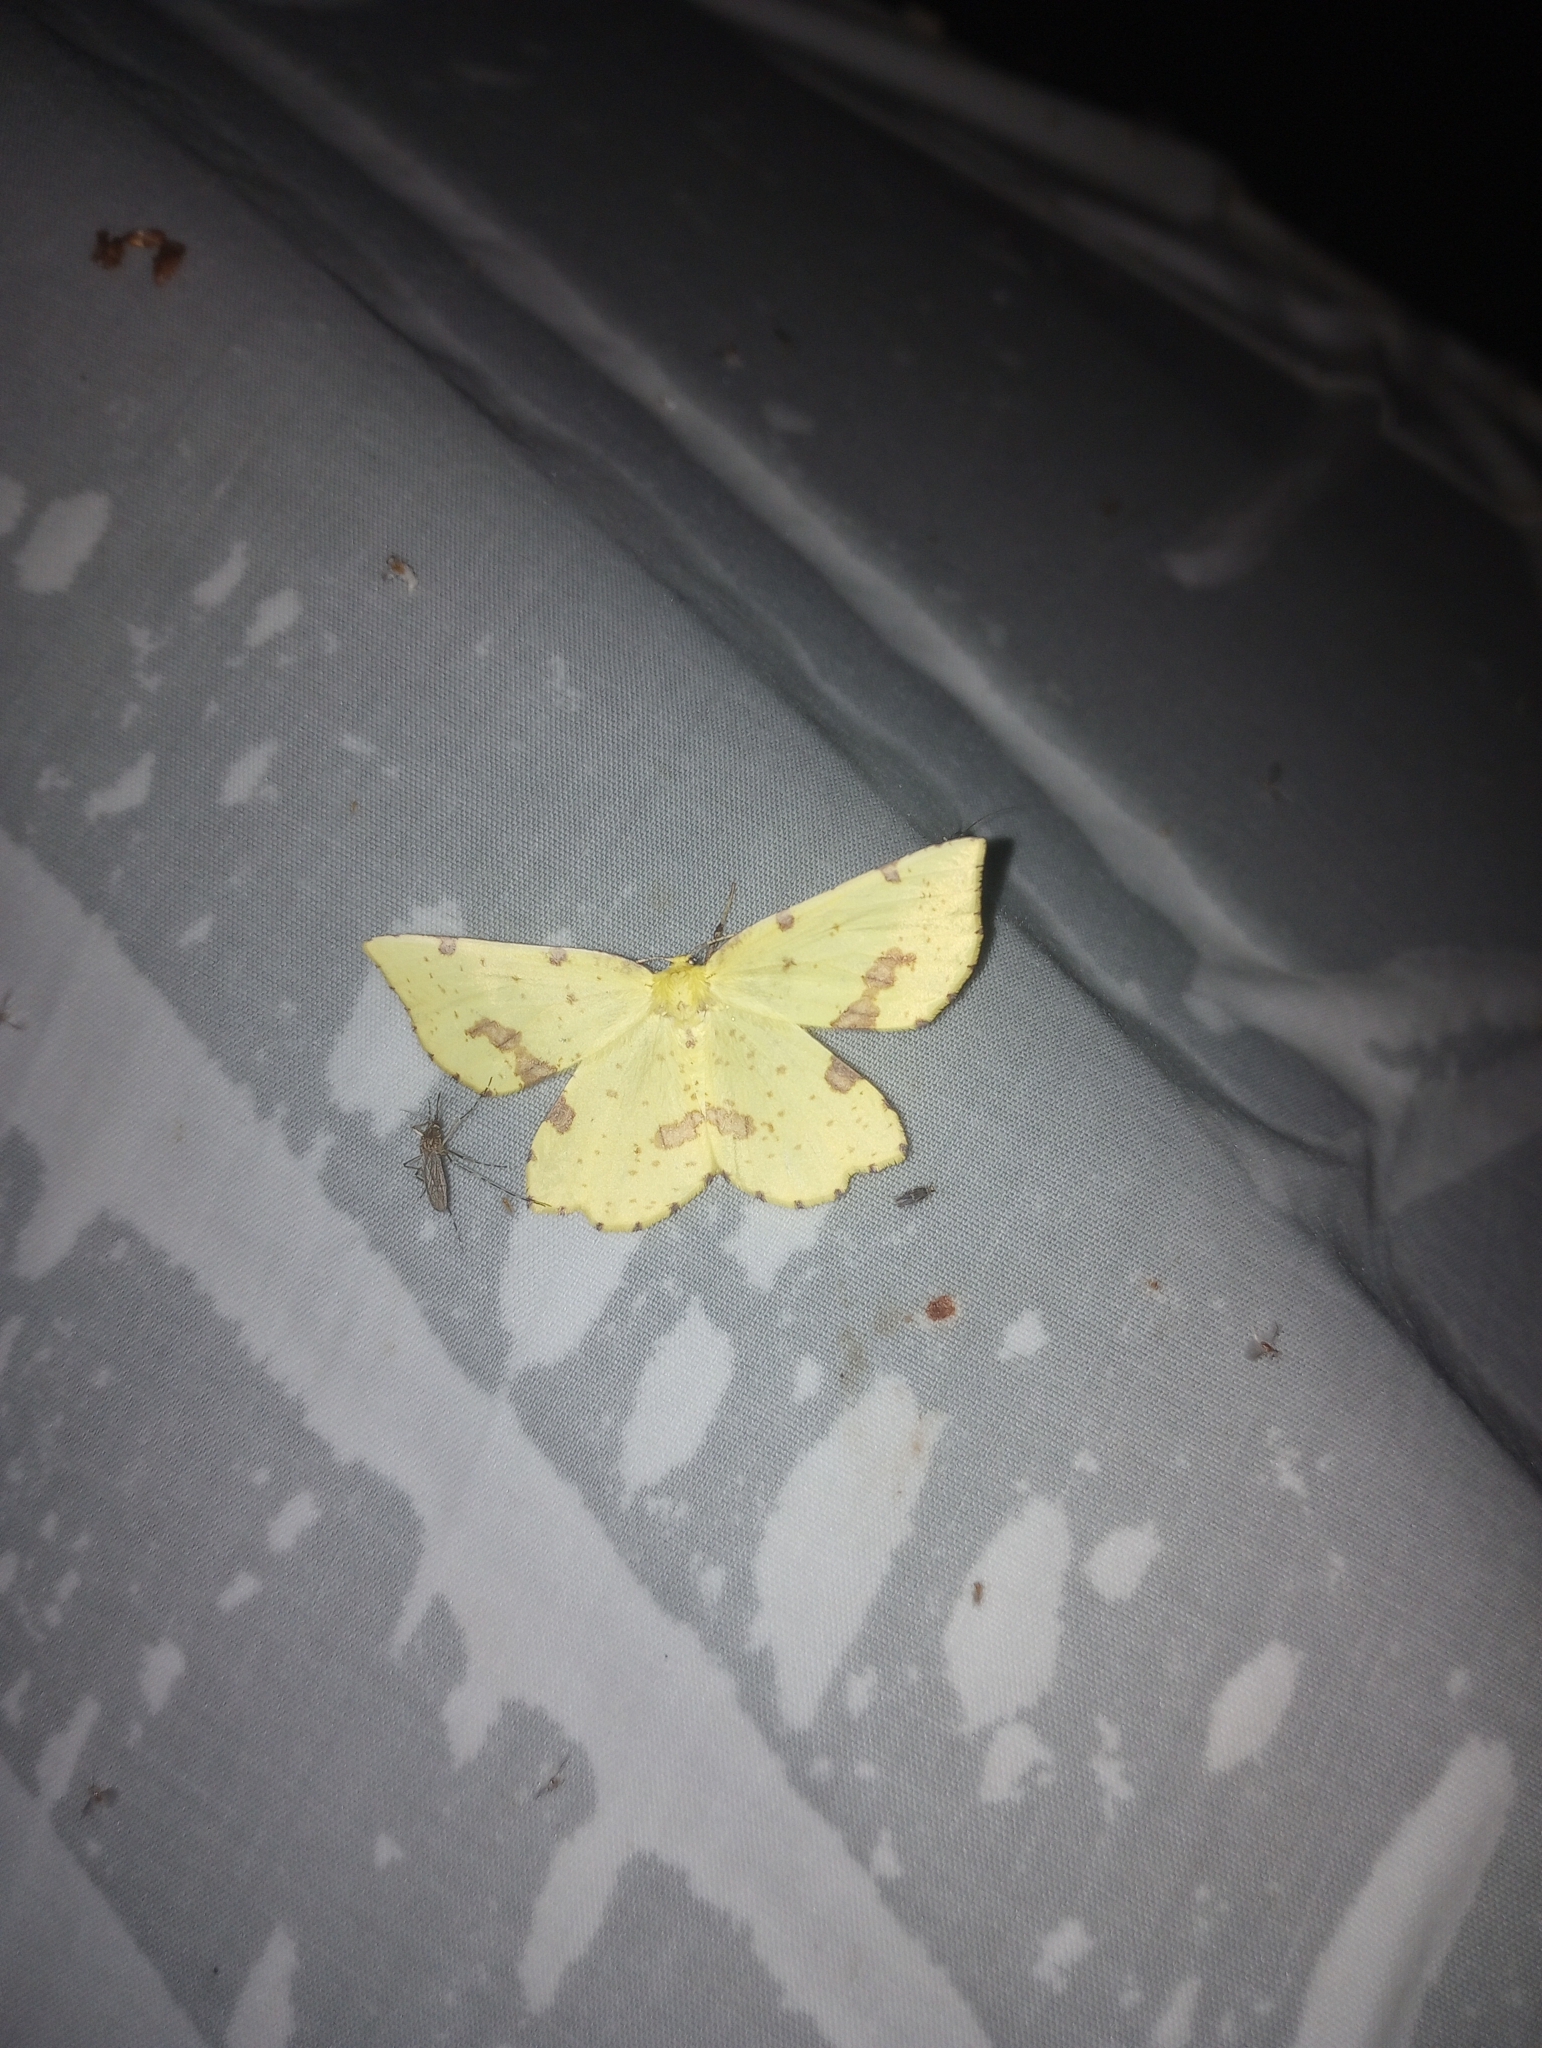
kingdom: Animalia
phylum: Arthropoda
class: Insecta
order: Lepidoptera
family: Geometridae
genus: Xanthotype
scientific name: Xanthotype
